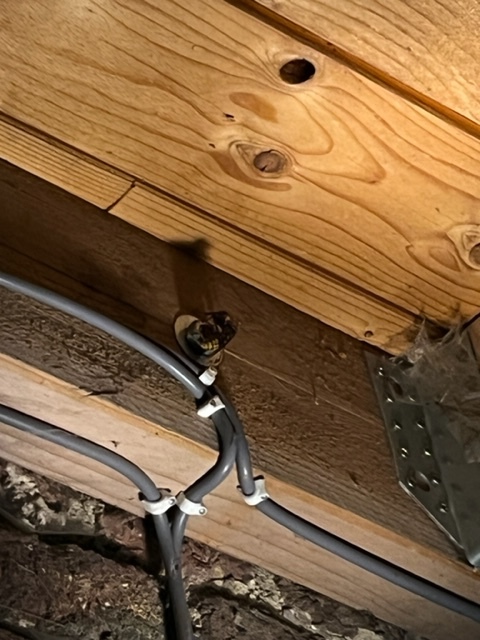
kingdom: Animalia
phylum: Arthropoda
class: Insecta
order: Hymenoptera
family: Vespidae
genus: Vespa
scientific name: Vespa crabro
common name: Hornet
